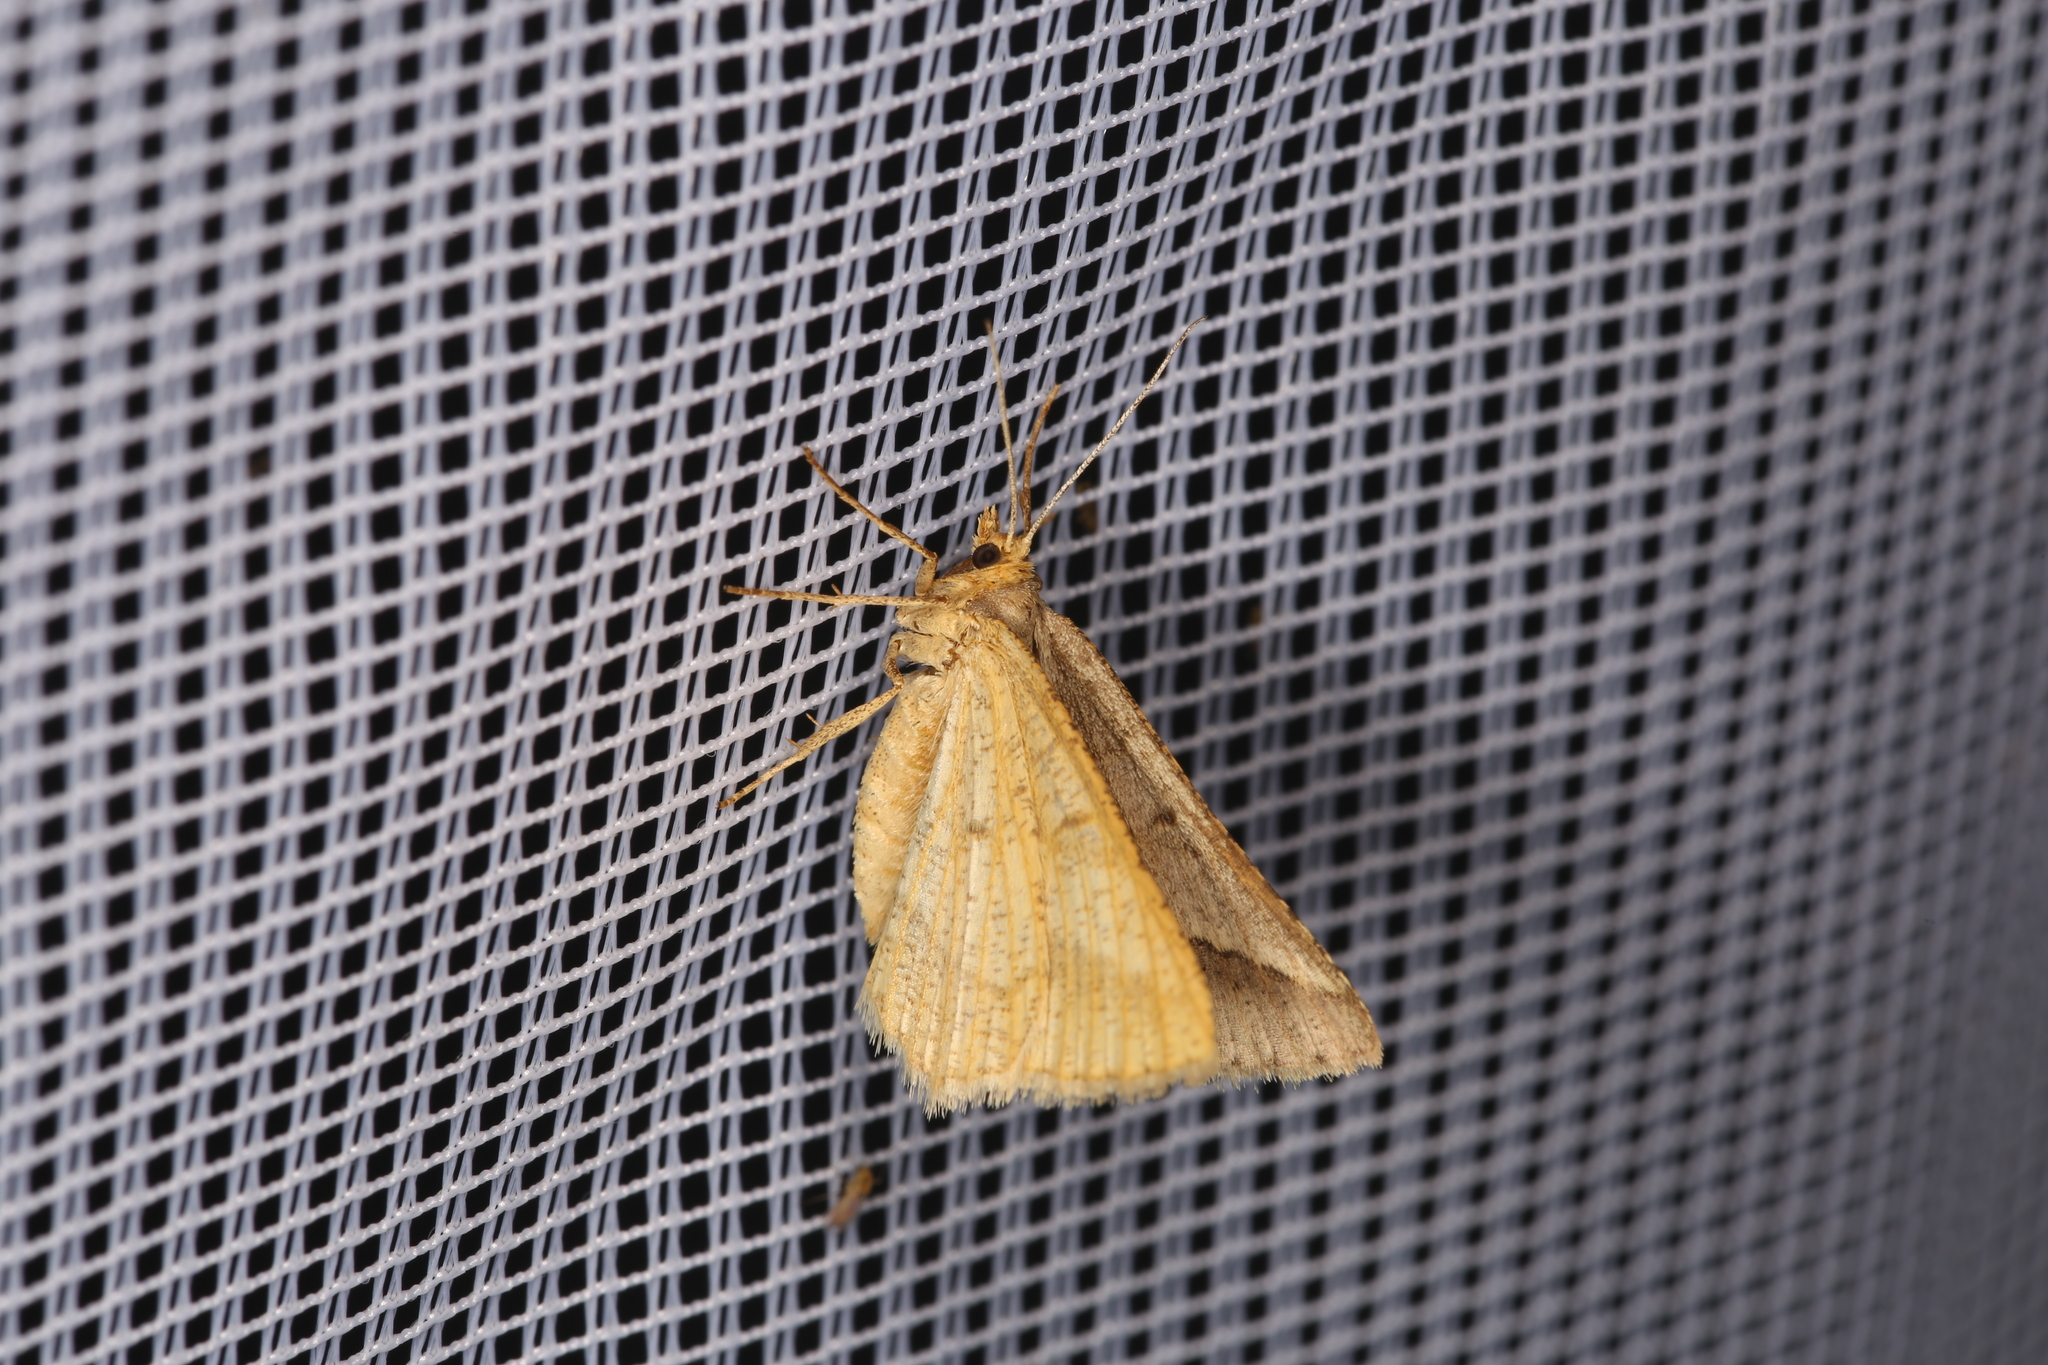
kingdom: Animalia
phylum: Arthropoda
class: Insecta
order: Lepidoptera
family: Geometridae
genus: Tephrina
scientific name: Tephrina arenacearia
